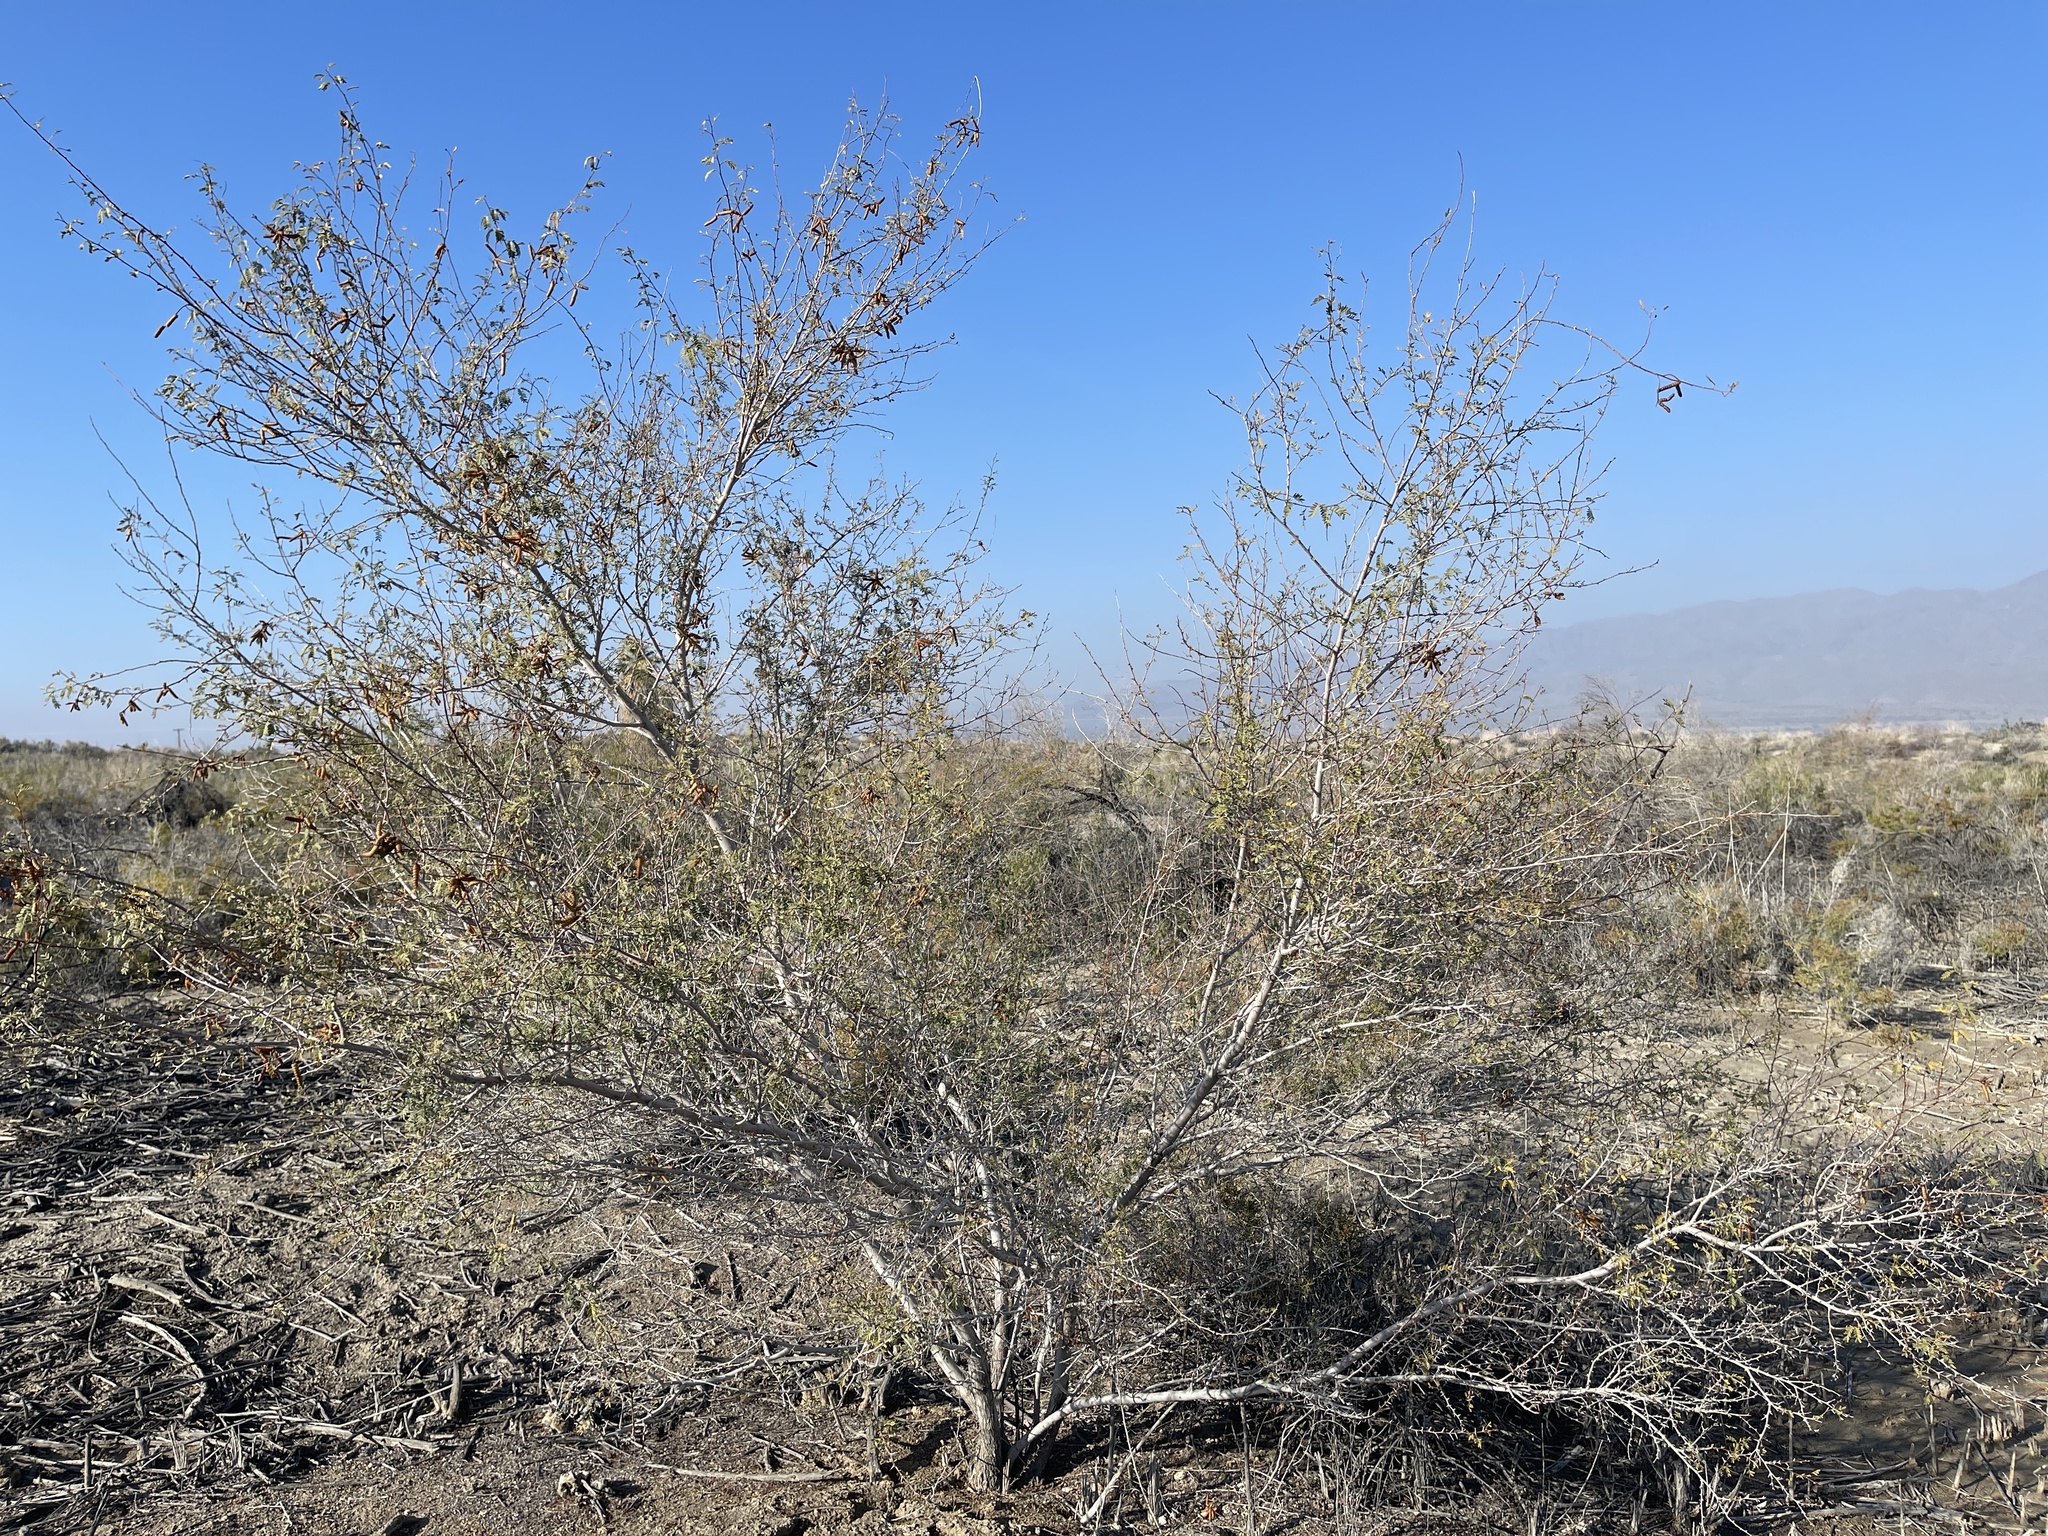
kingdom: Plantae
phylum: Tracheophyta
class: Magnoliopsida
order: Fabales
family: Fabaceae
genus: Prosopis
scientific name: Prosopis pubescens
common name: Screw-bean
